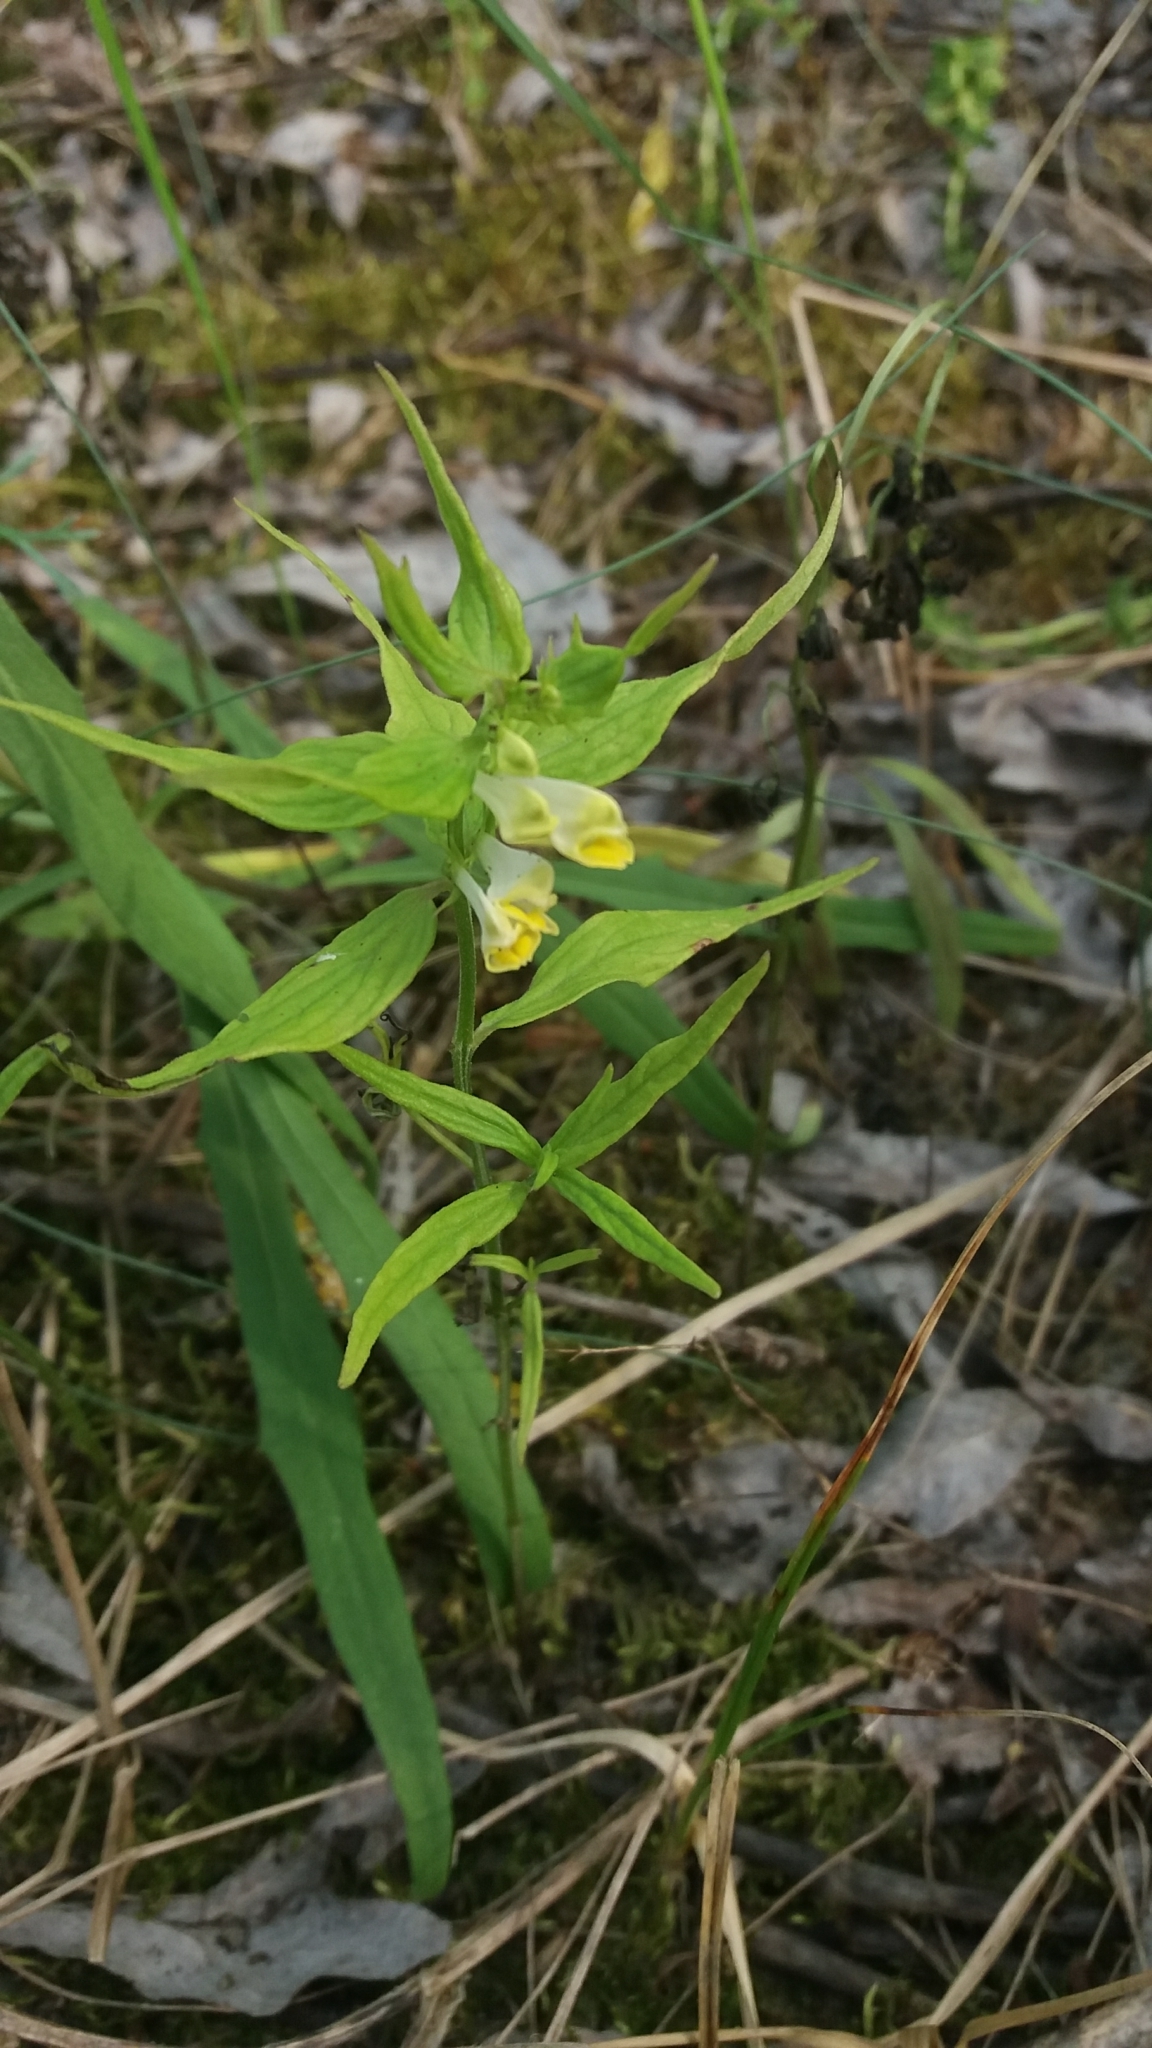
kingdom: Plantae
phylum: Tracheophyta
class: Magnoliopsida
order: Lamiales
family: Orobanchaceae
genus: Melampyrum
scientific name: Melampyrum pratense
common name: Common cow-wheat
